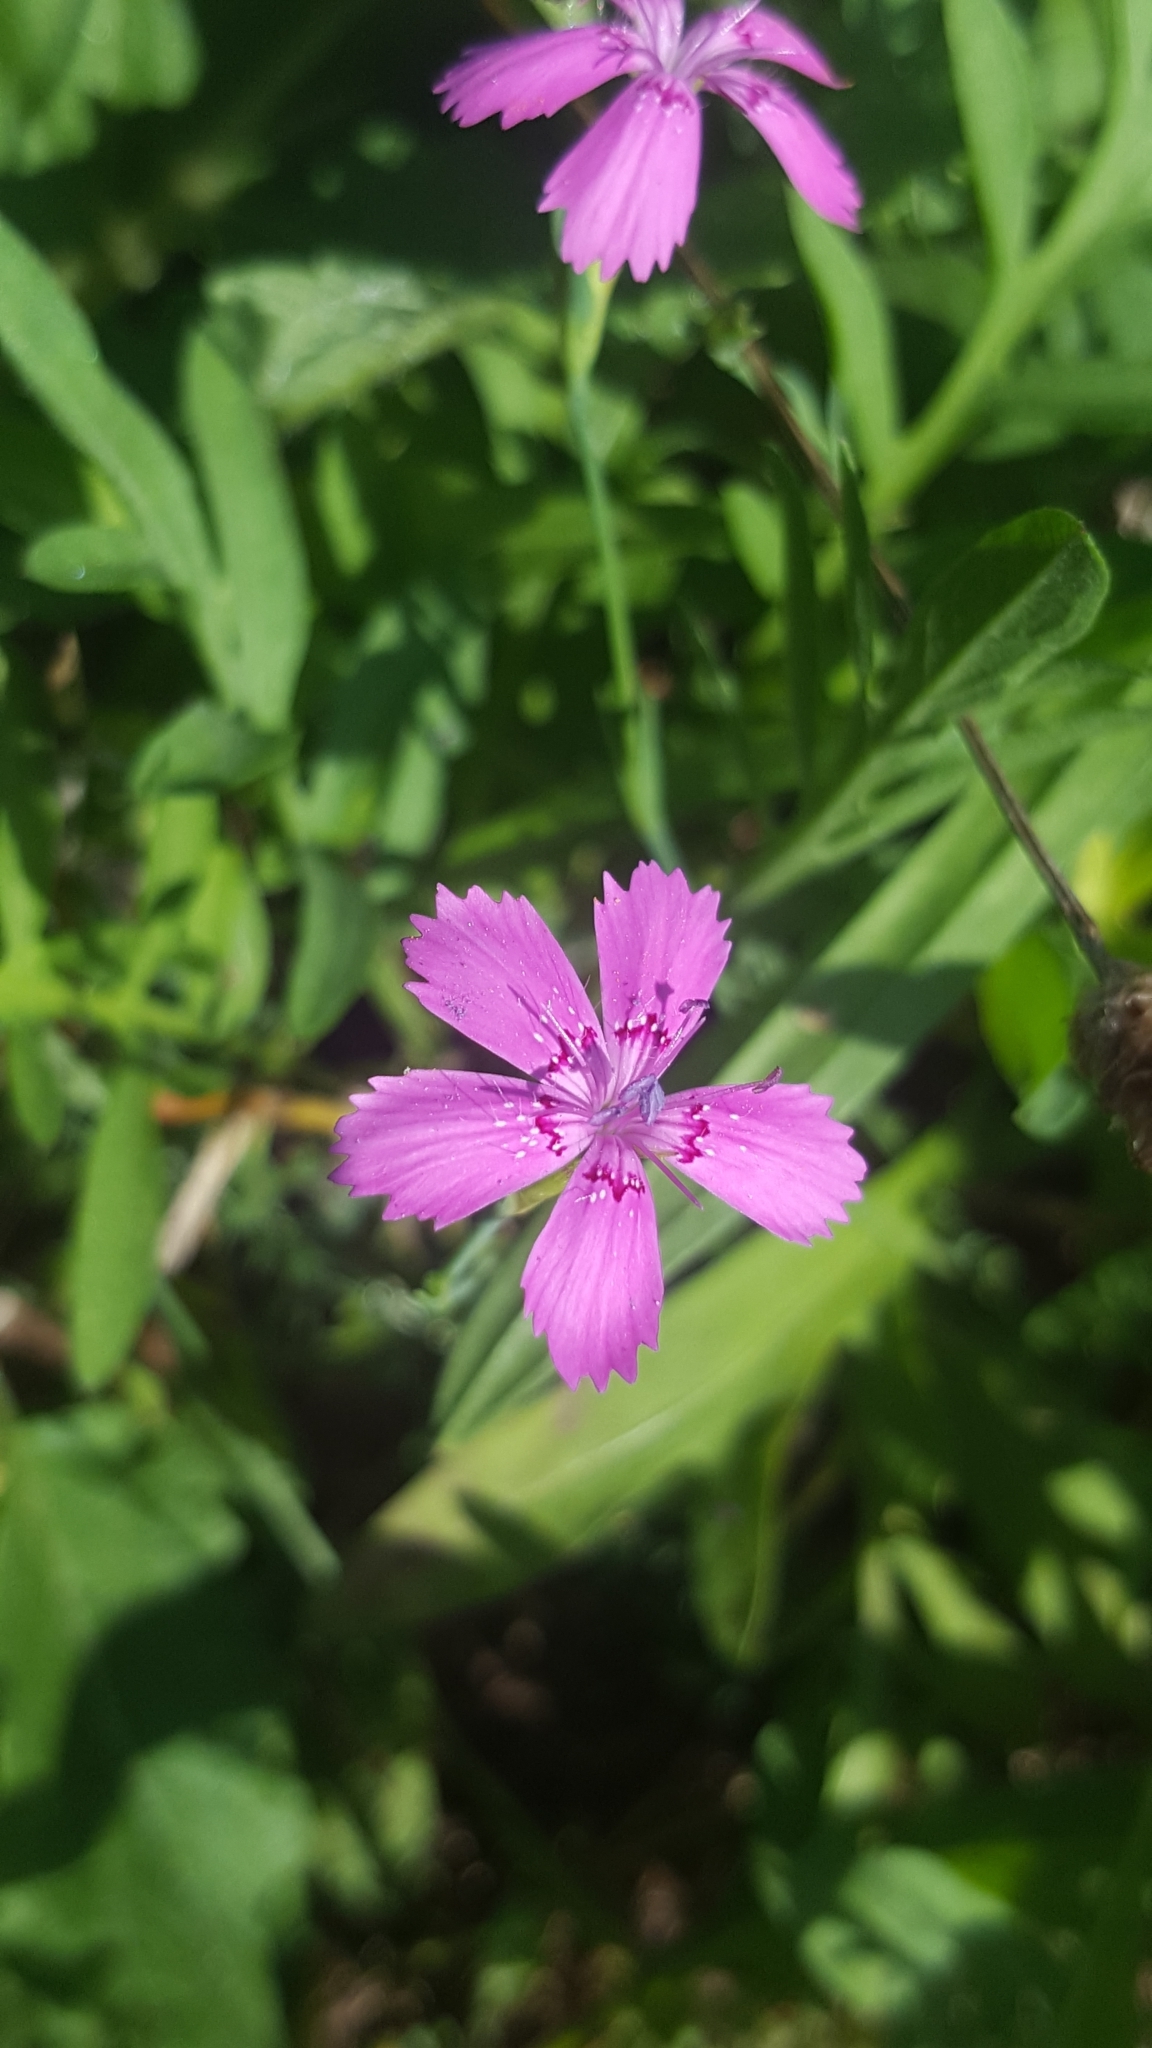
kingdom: Plantae
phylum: Tracheophyta
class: Magnoliopsida
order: Caryophyllales
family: Caryophyllaceae
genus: Dianthus
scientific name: Dianthus deltoides
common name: Maiden pink
